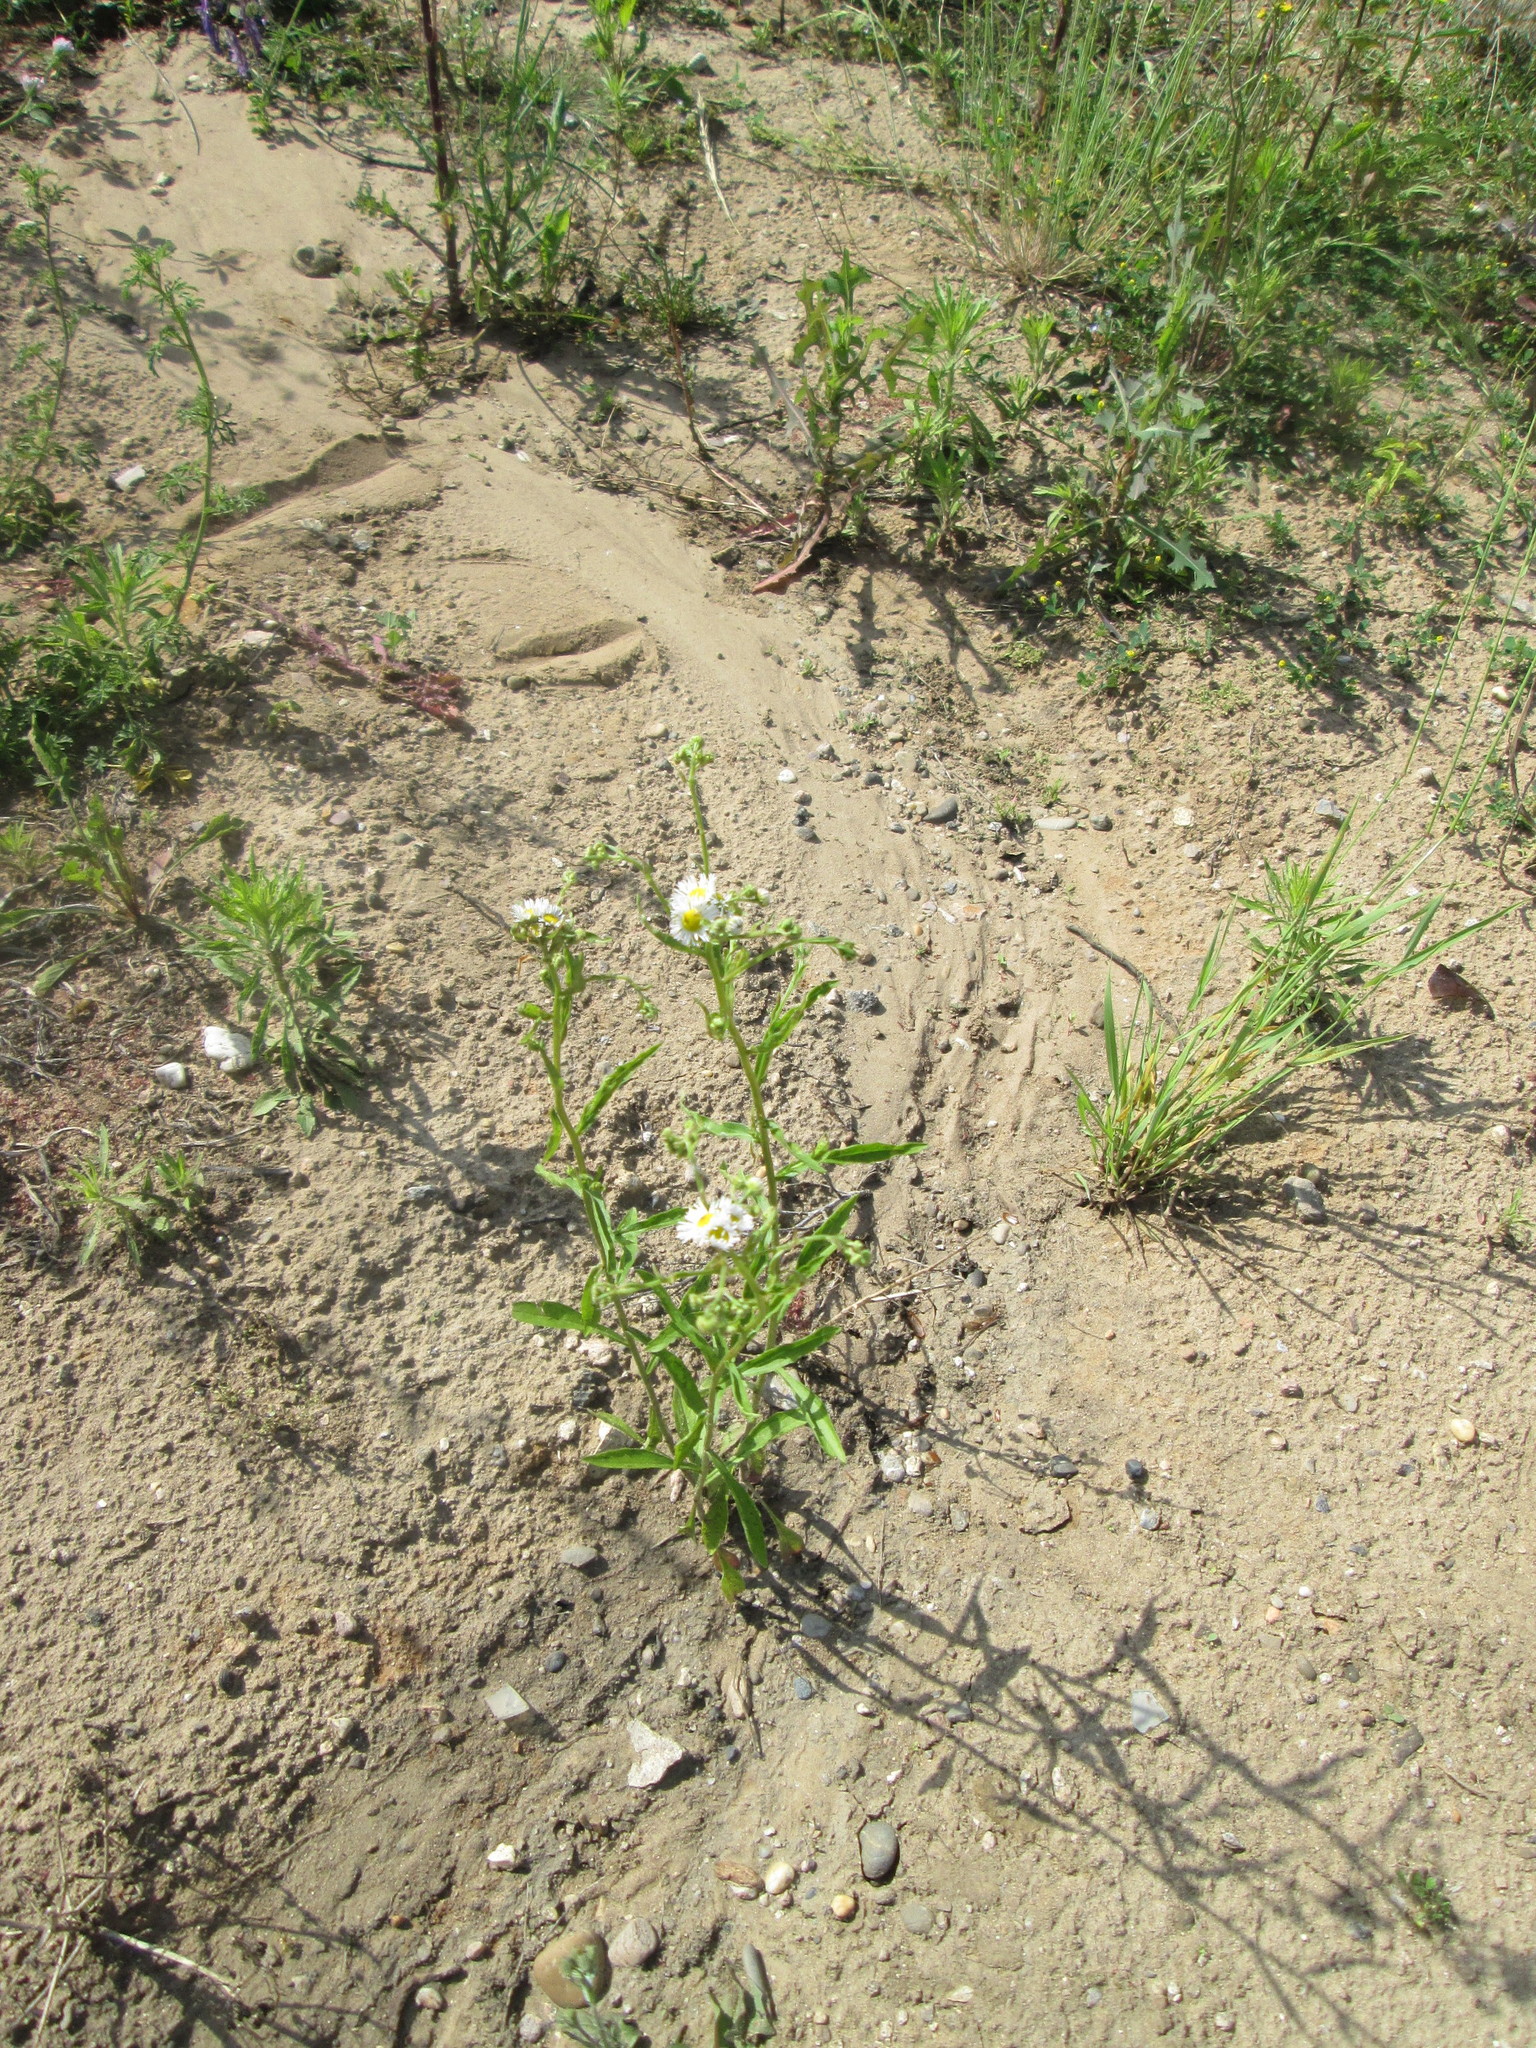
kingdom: Plantae
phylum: Tracheophyta
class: Magnoliopsida
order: Asterales
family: Asteraceae
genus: Erigeron
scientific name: Erigeron annuus
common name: Tall fleabane
